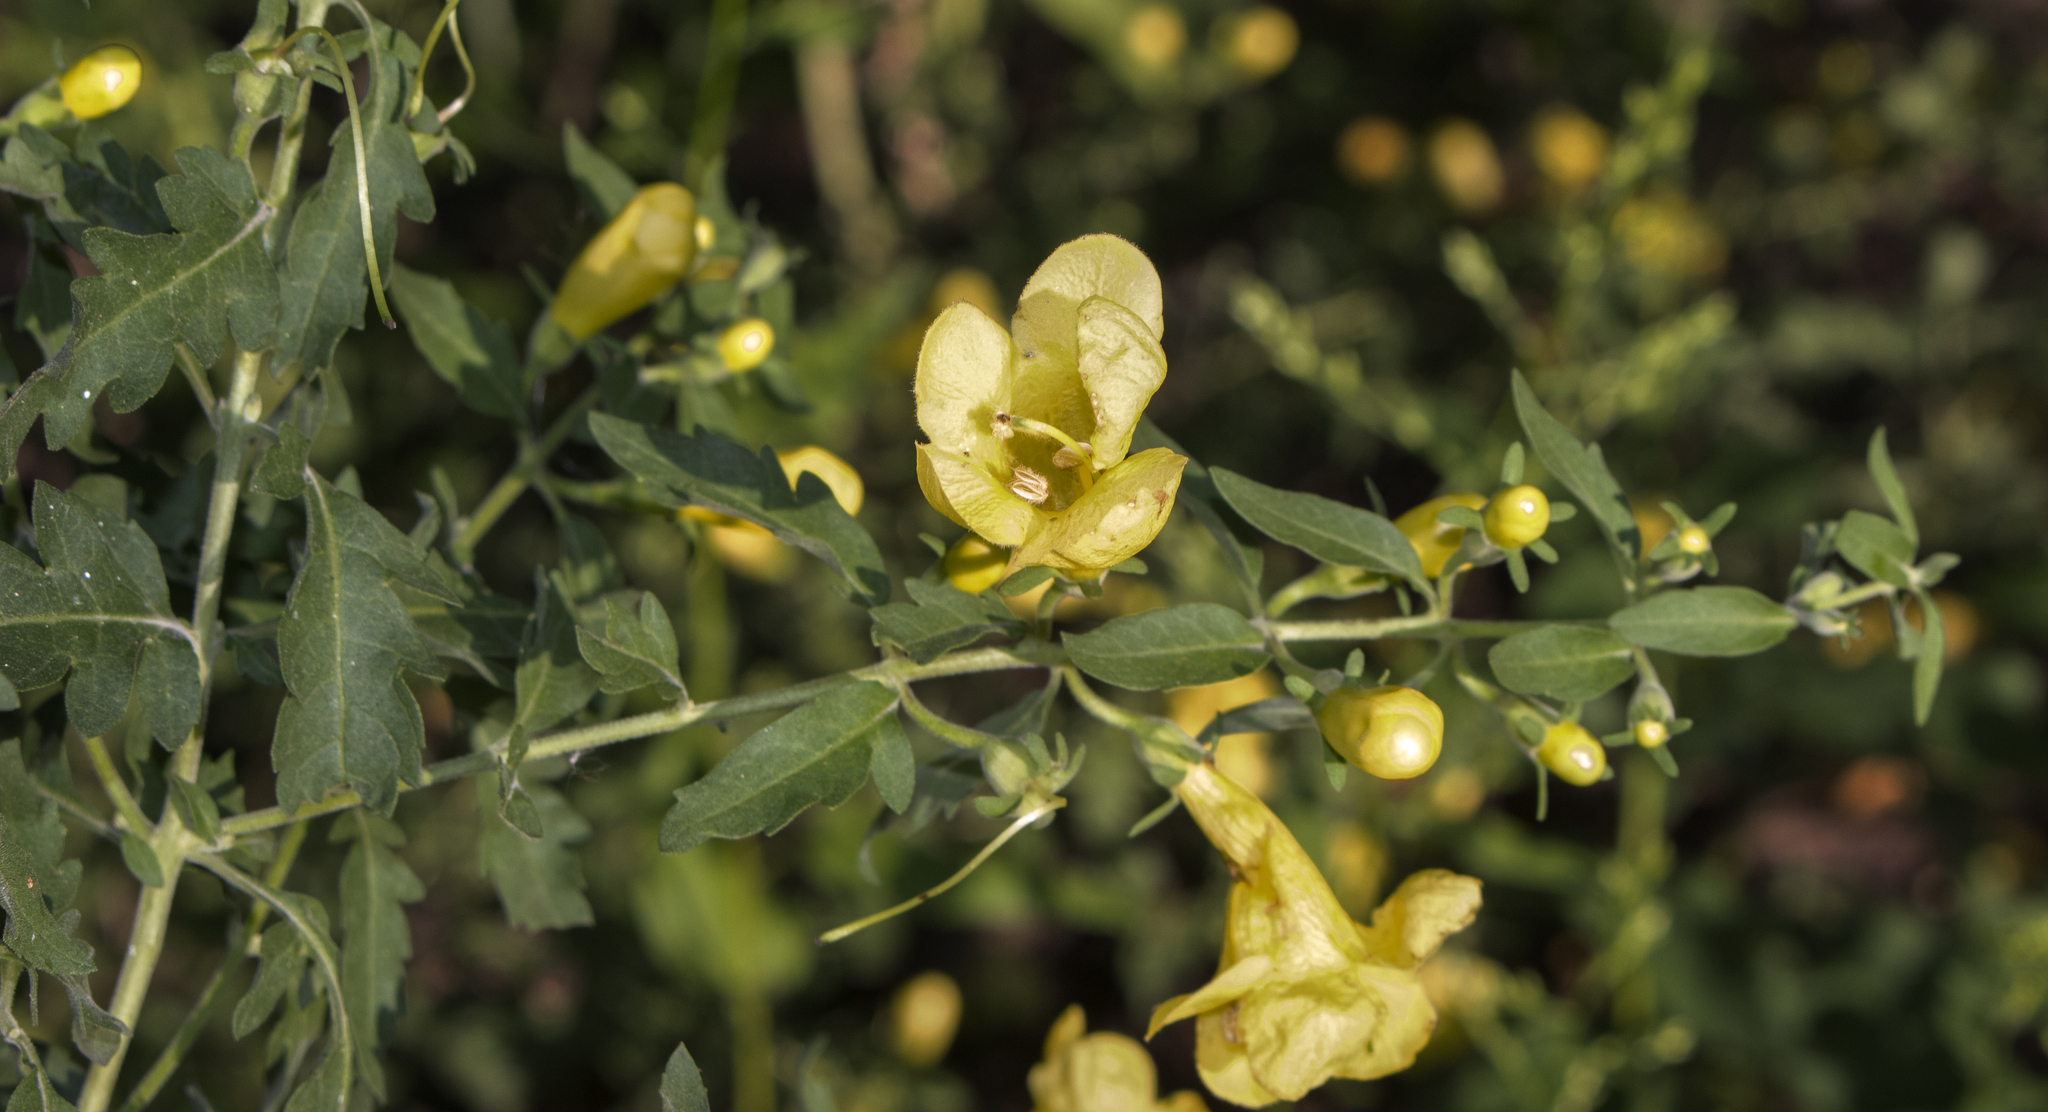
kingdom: Plantae
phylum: Tracheophyta
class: Magnoliopsida
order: Lamiales
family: Orobanchaceae
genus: Aureolaria
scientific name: Aureolaria grandiflora
